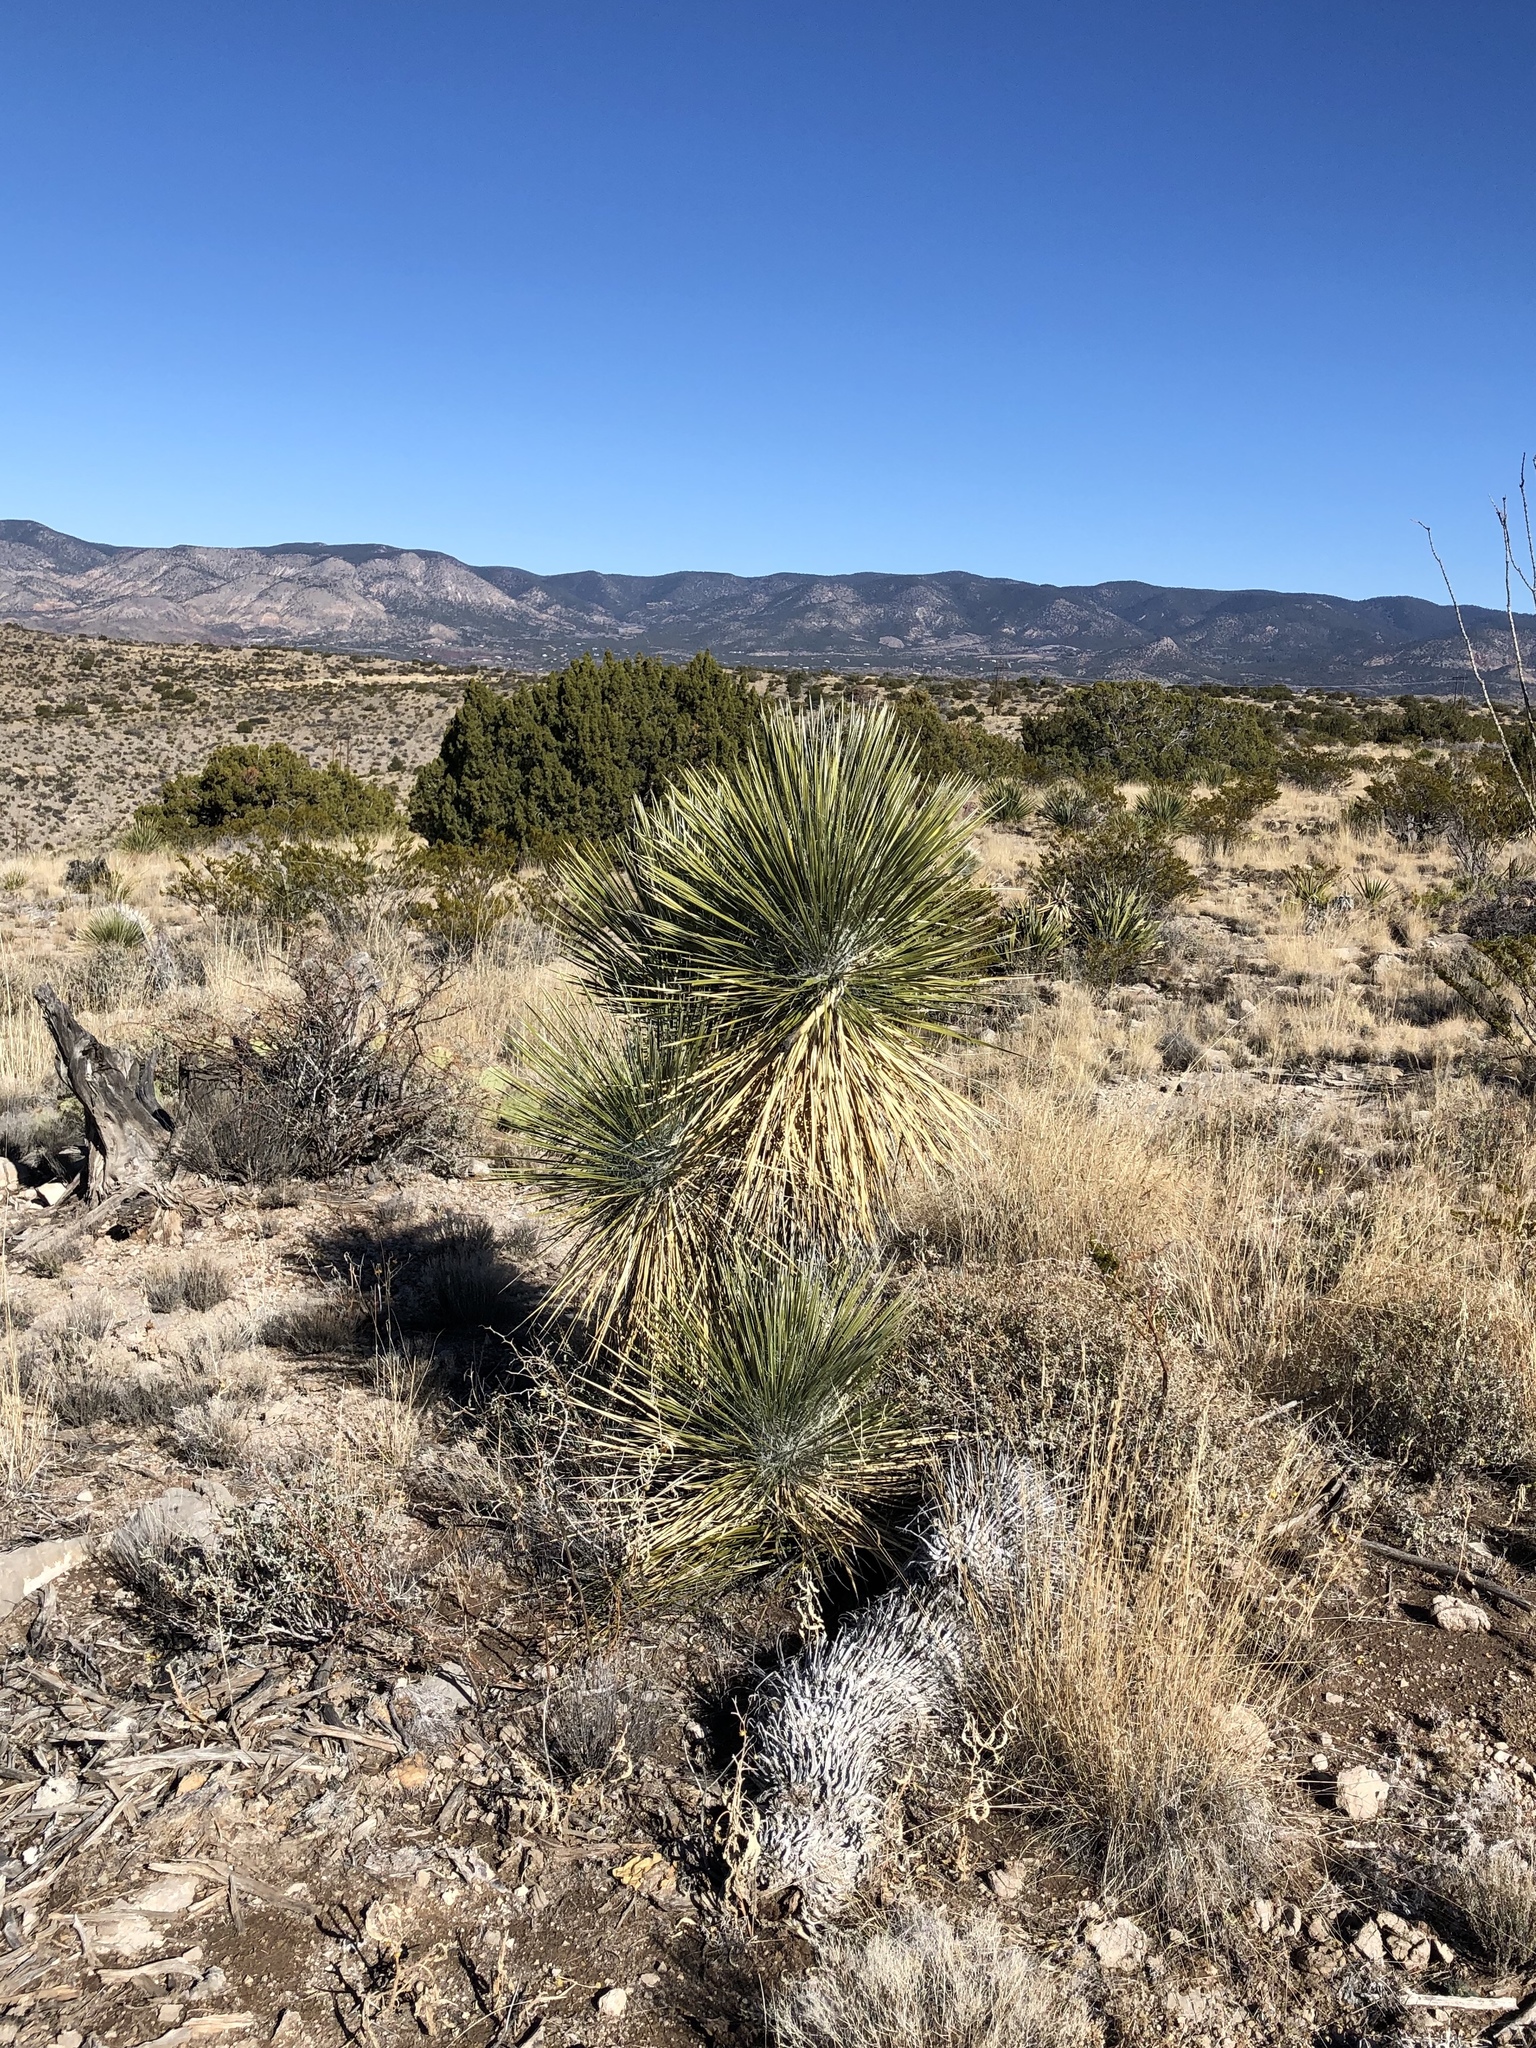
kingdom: Plantae
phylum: Tracheophyta
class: Liliopsida
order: Asparagales
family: Asparagaceae
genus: Yucca
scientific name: Yucca elata
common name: Palmella
